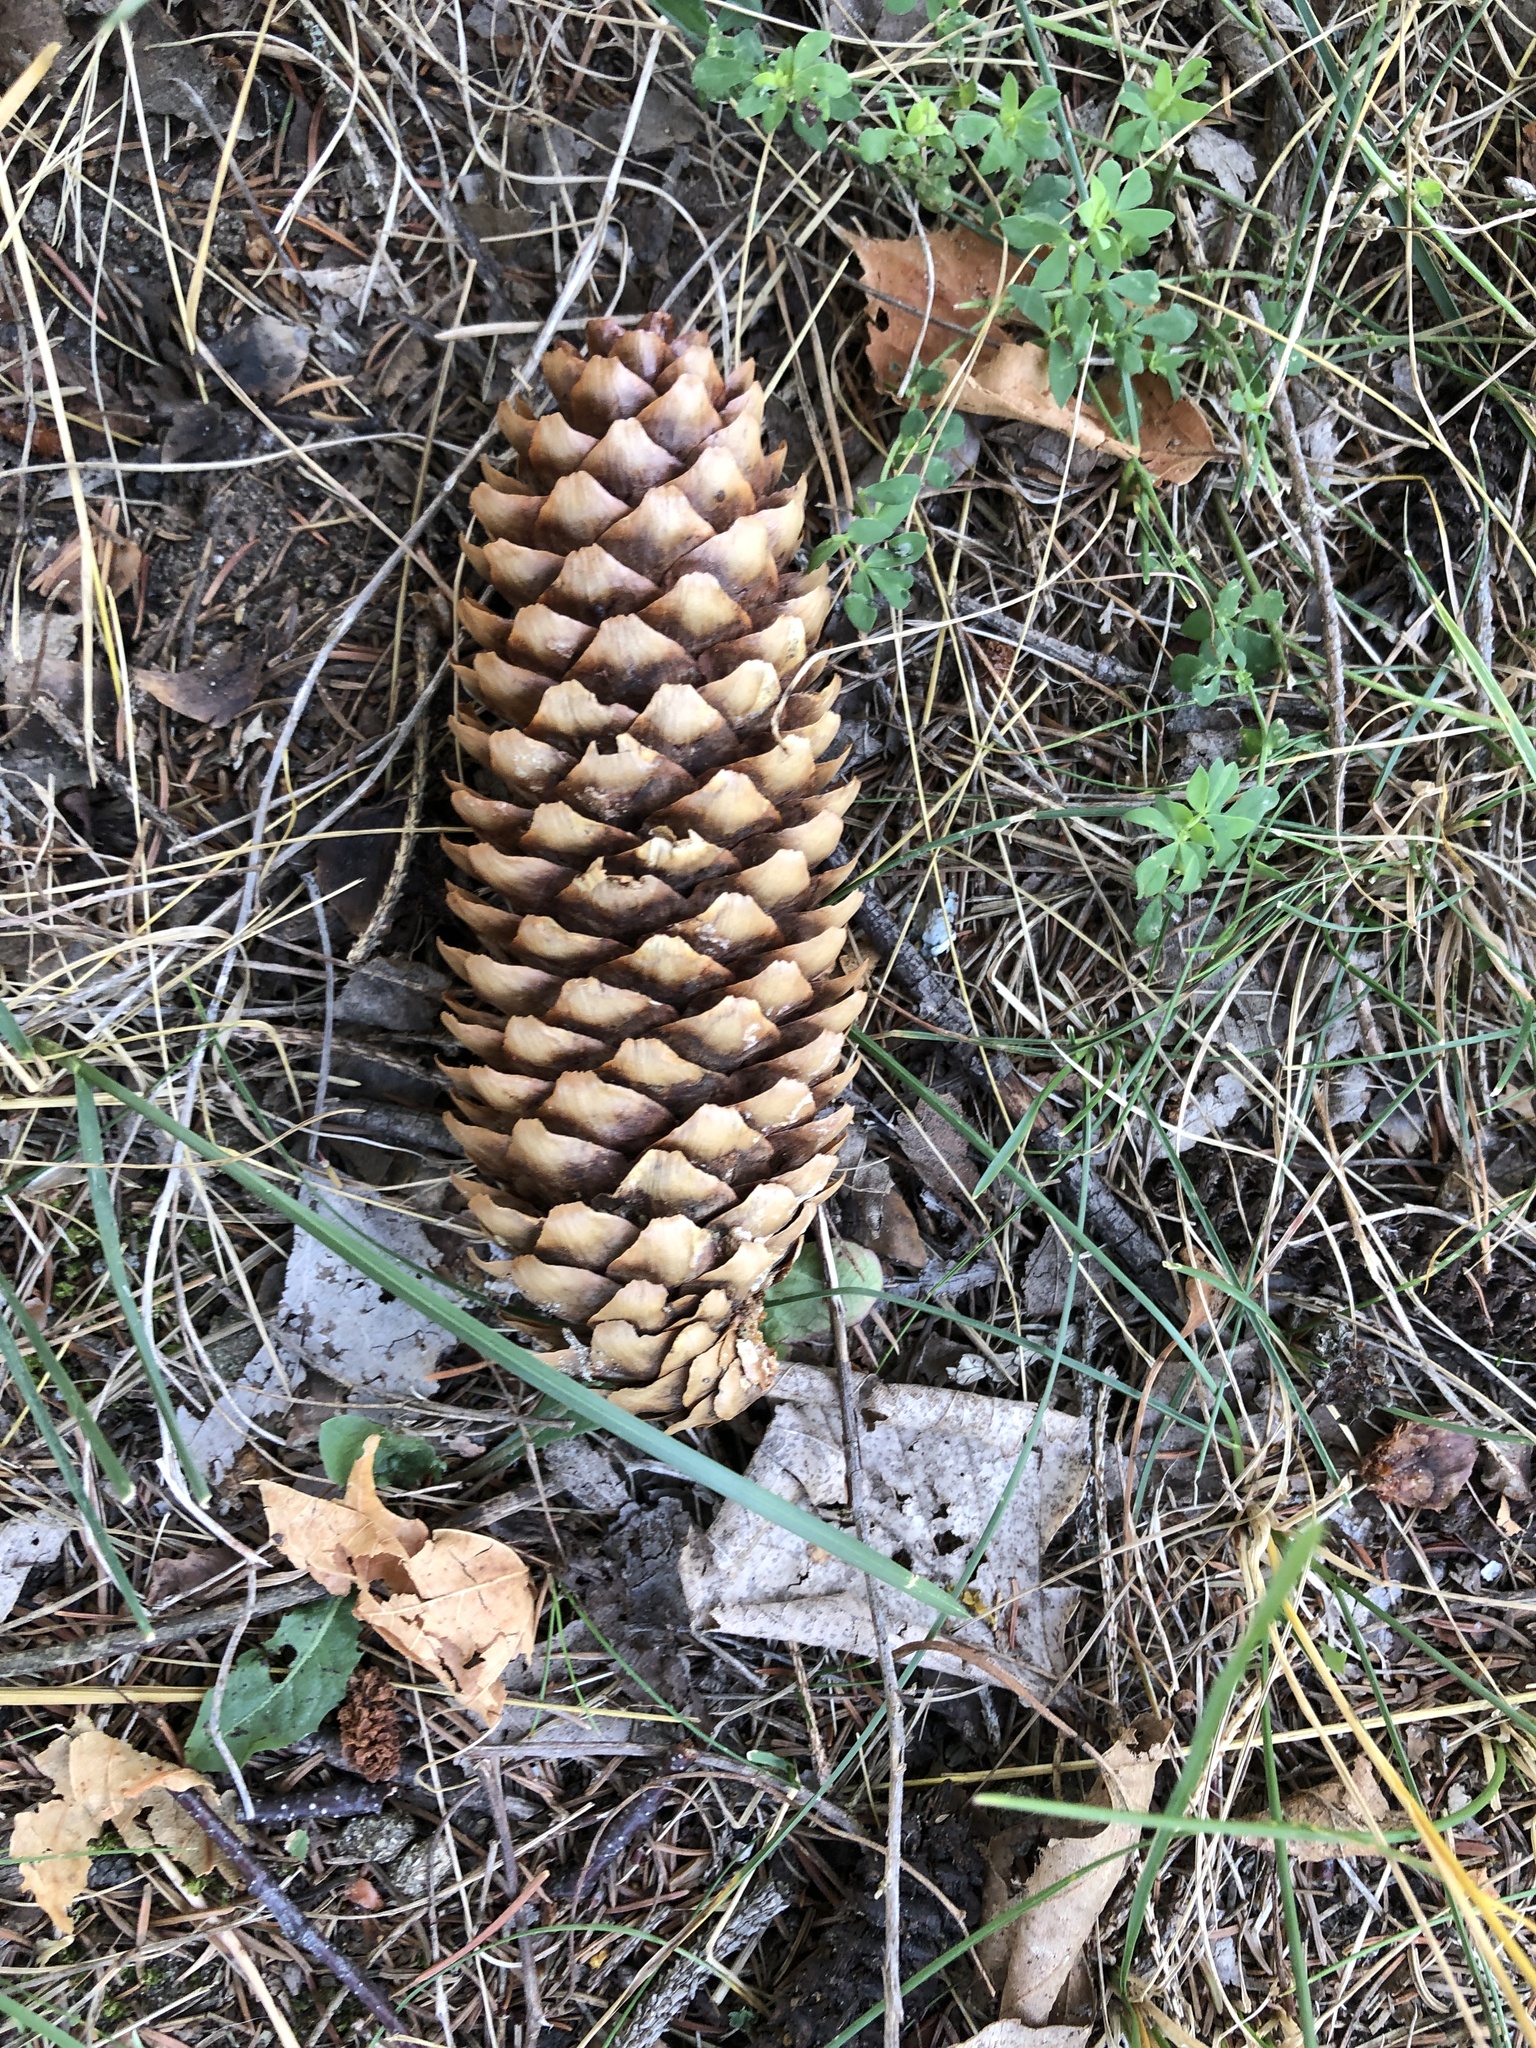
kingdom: Plantae
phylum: Tracheophyta
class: Pinopsida
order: Pinales
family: Pinaceae
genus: Picea
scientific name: Picea abies
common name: Norway spruce
